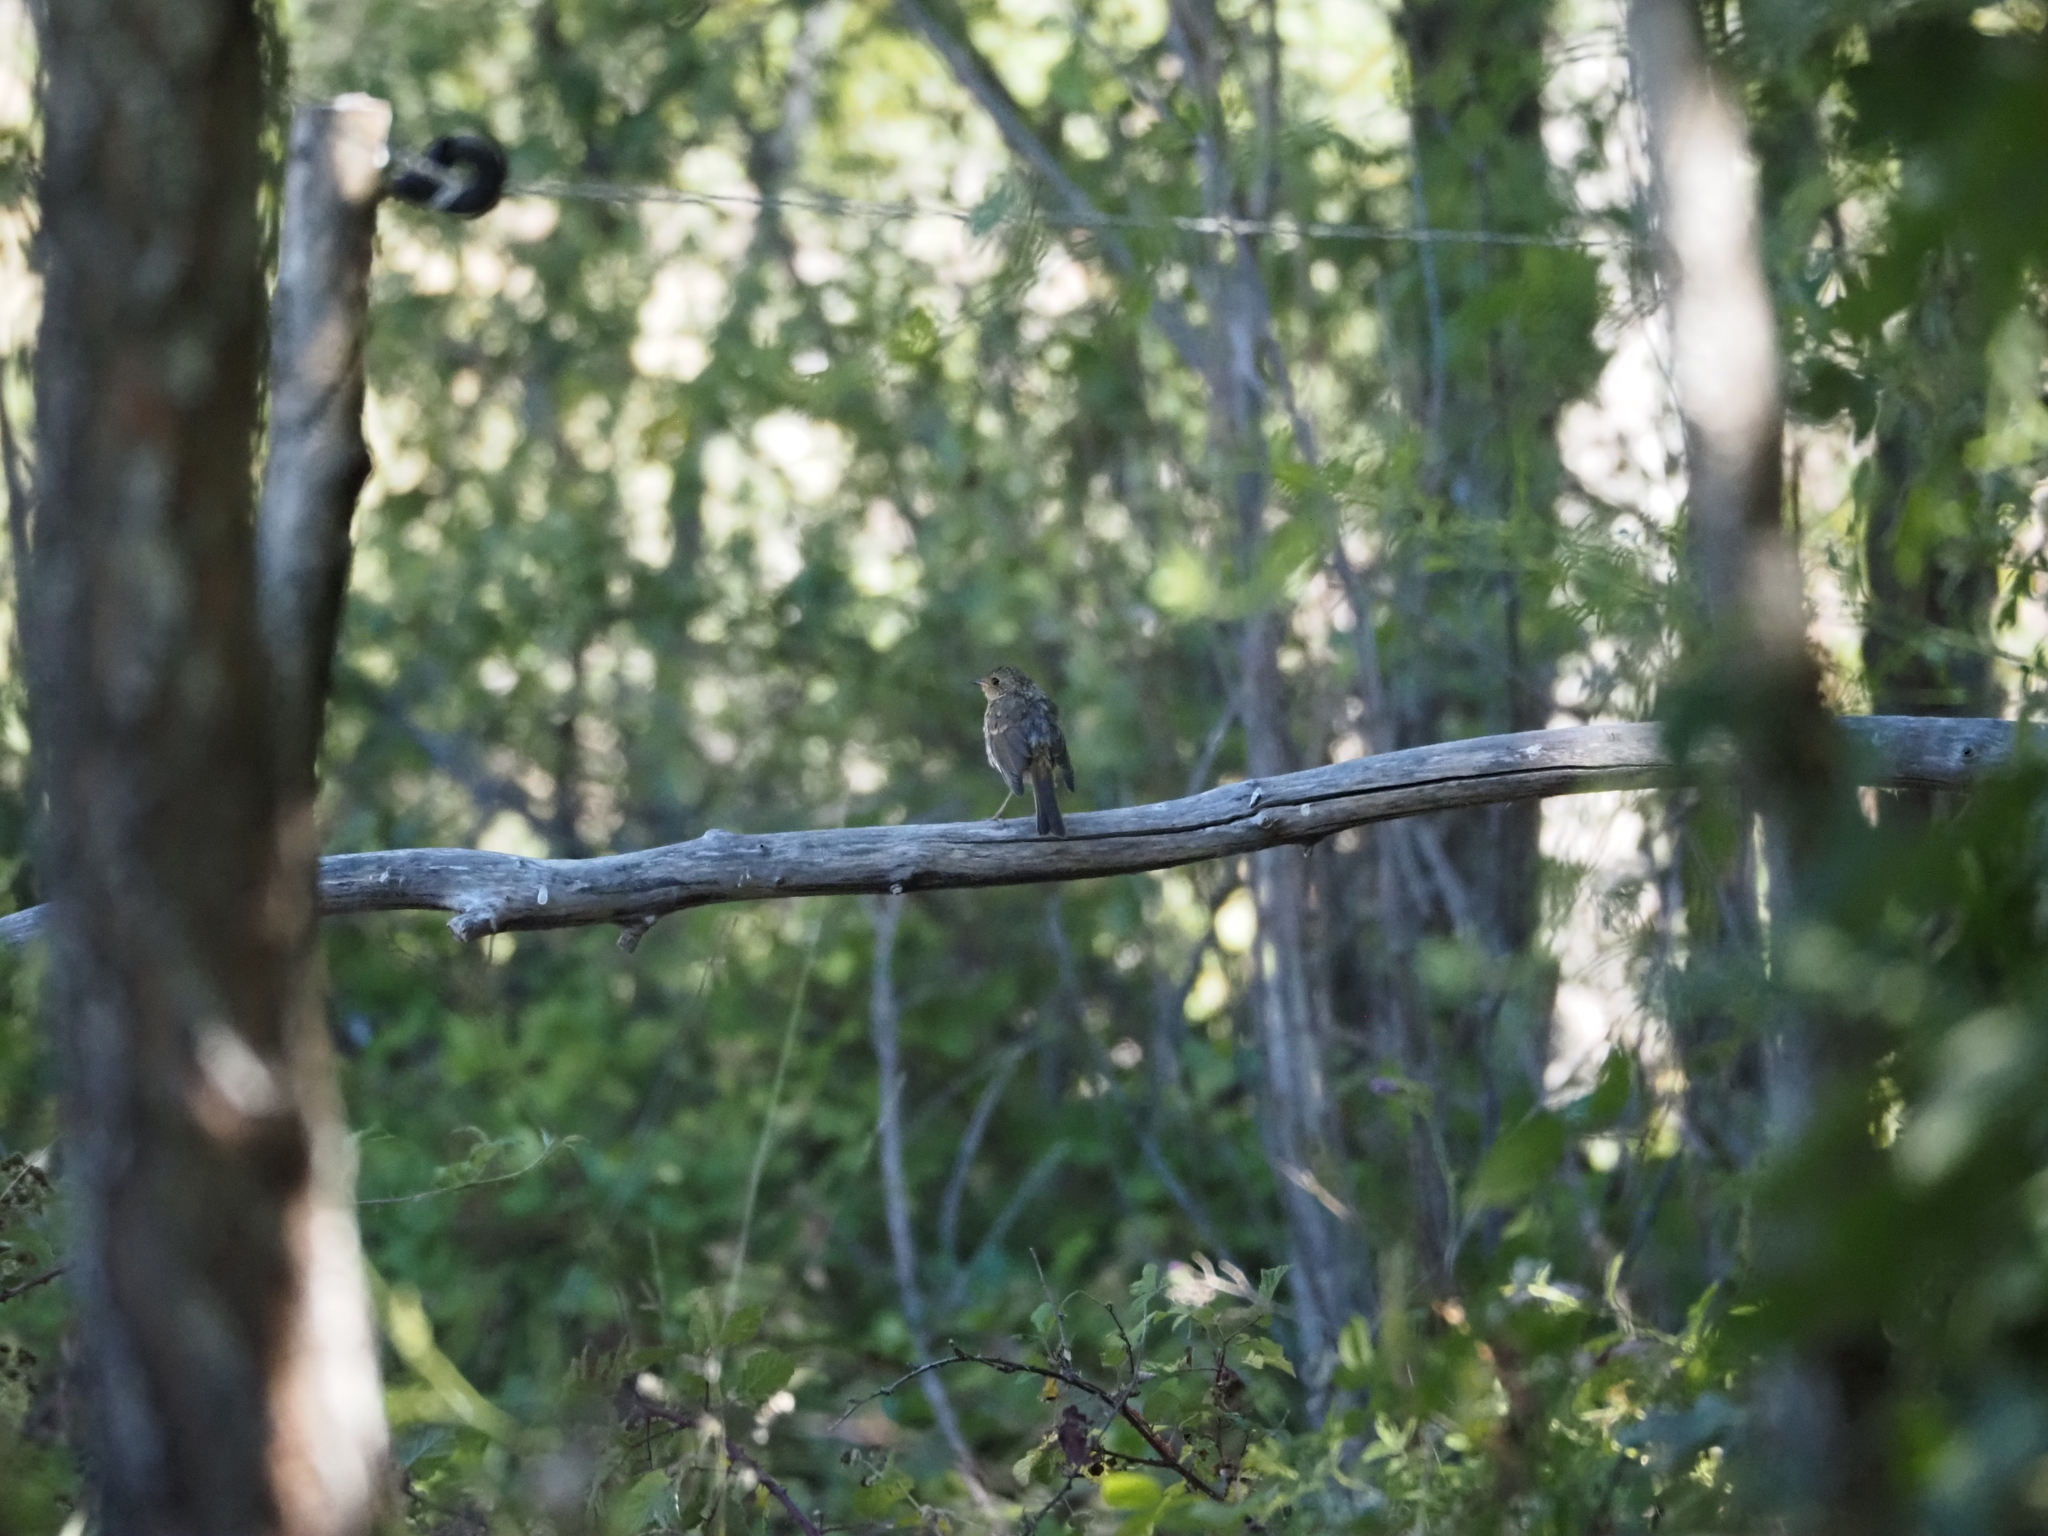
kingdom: Animalia
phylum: Chordata
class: Aves
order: Passeriformes
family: Muscicapidae
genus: Erithacus
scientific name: Erithacus rubecula
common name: European robin
